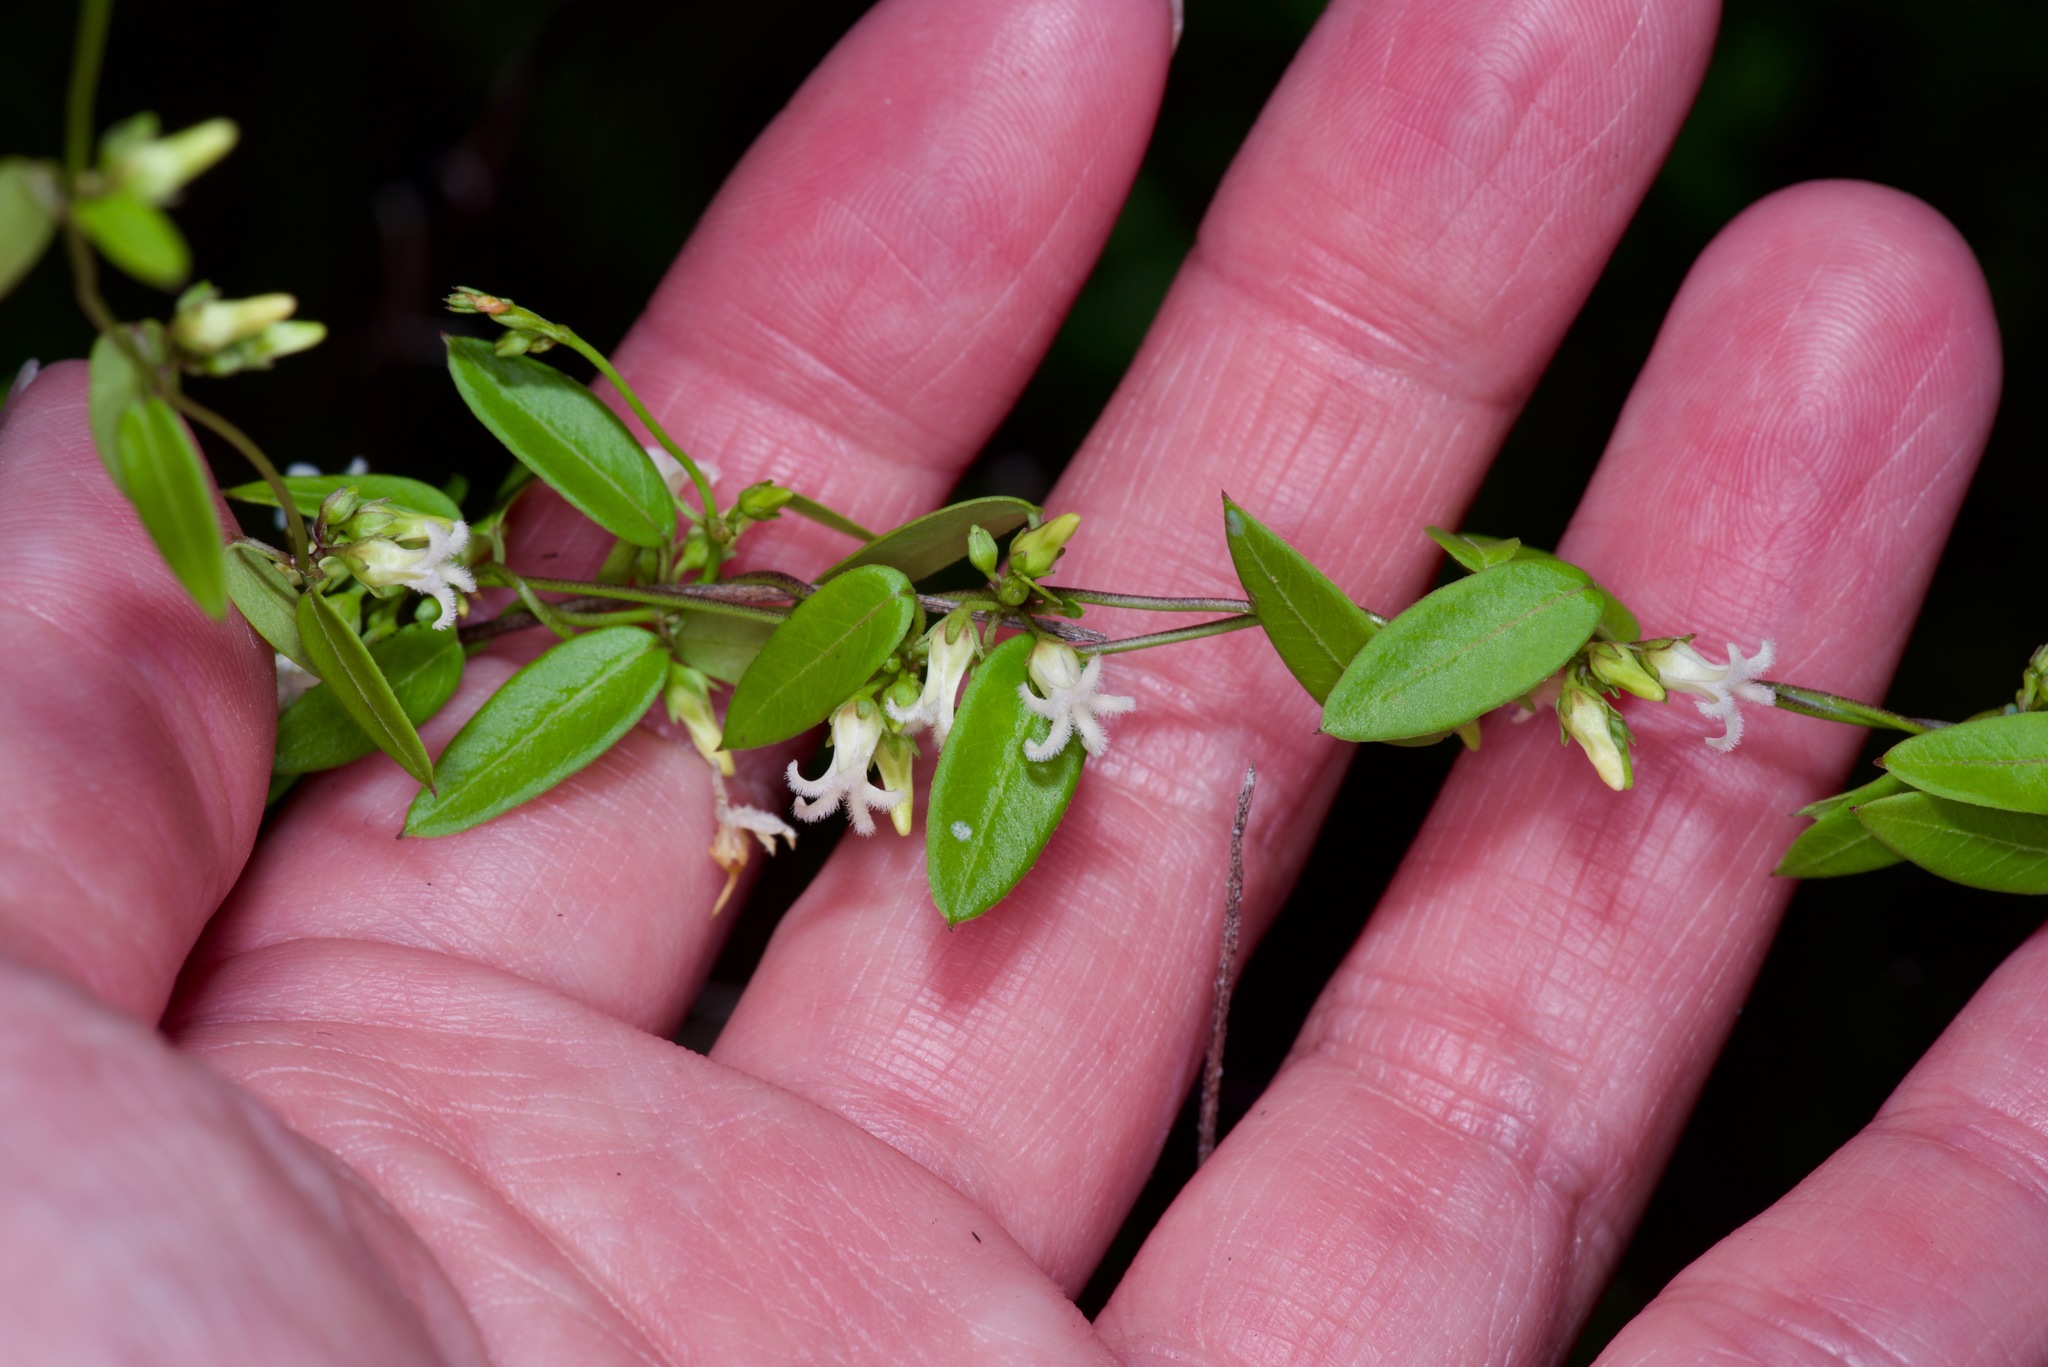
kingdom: Plantae
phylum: Tracheophyta
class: Magnoliopsida
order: Gentianales
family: Apocynaceae
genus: Metastelma
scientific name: Metastelma barbigerum
